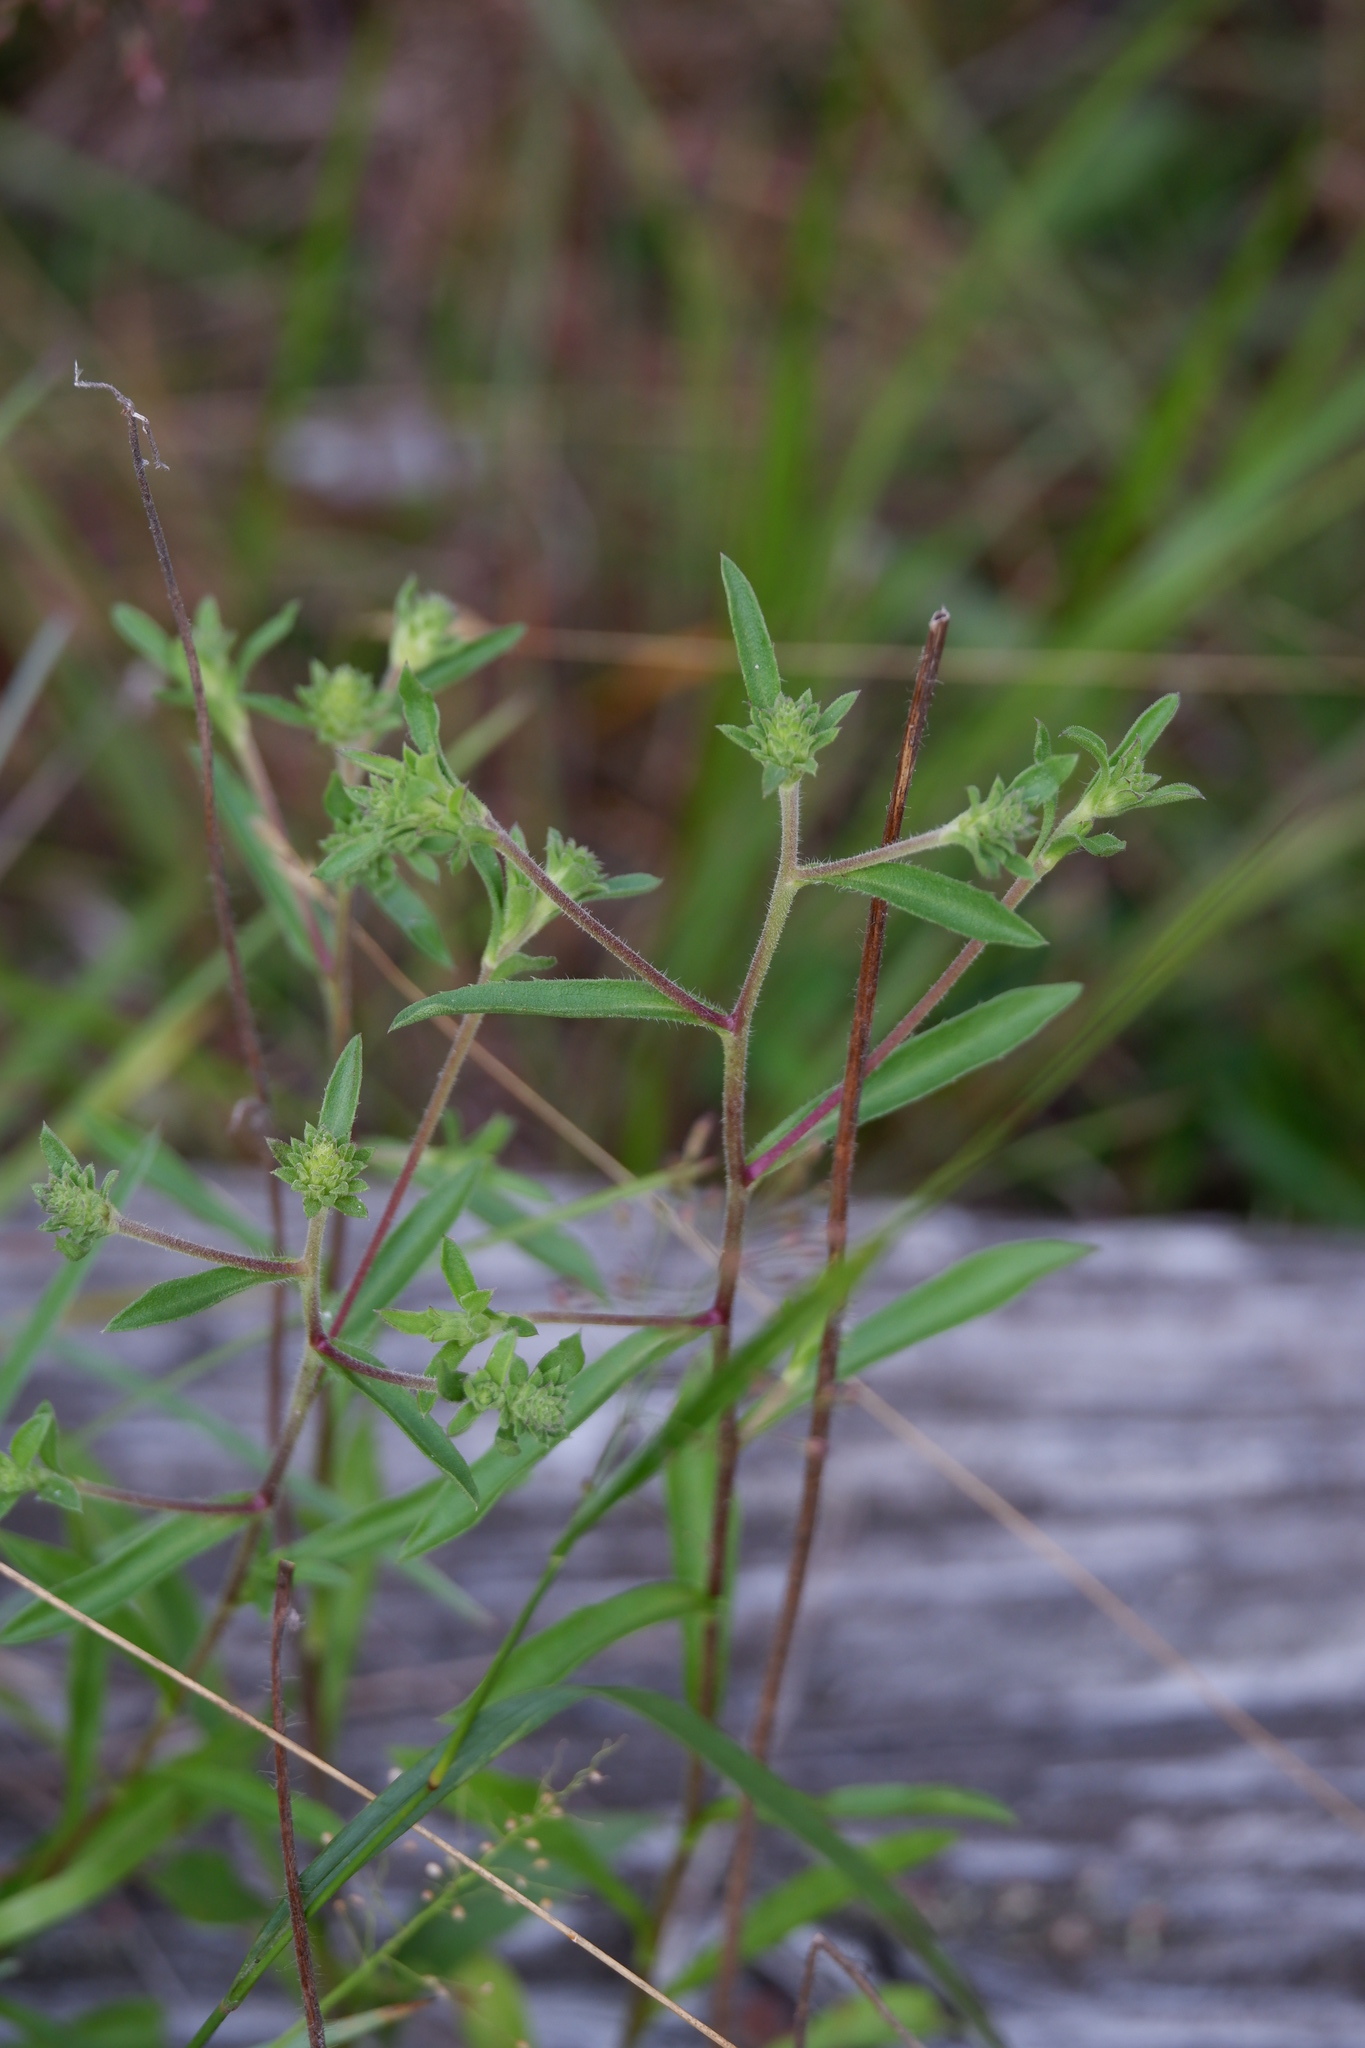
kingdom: Plantae
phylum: Tracheophyta
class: Magnoliopsida
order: Asterales
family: Asteraceae
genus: Eurybia
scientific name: Eurybia spectabilis
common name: Low showy aster
